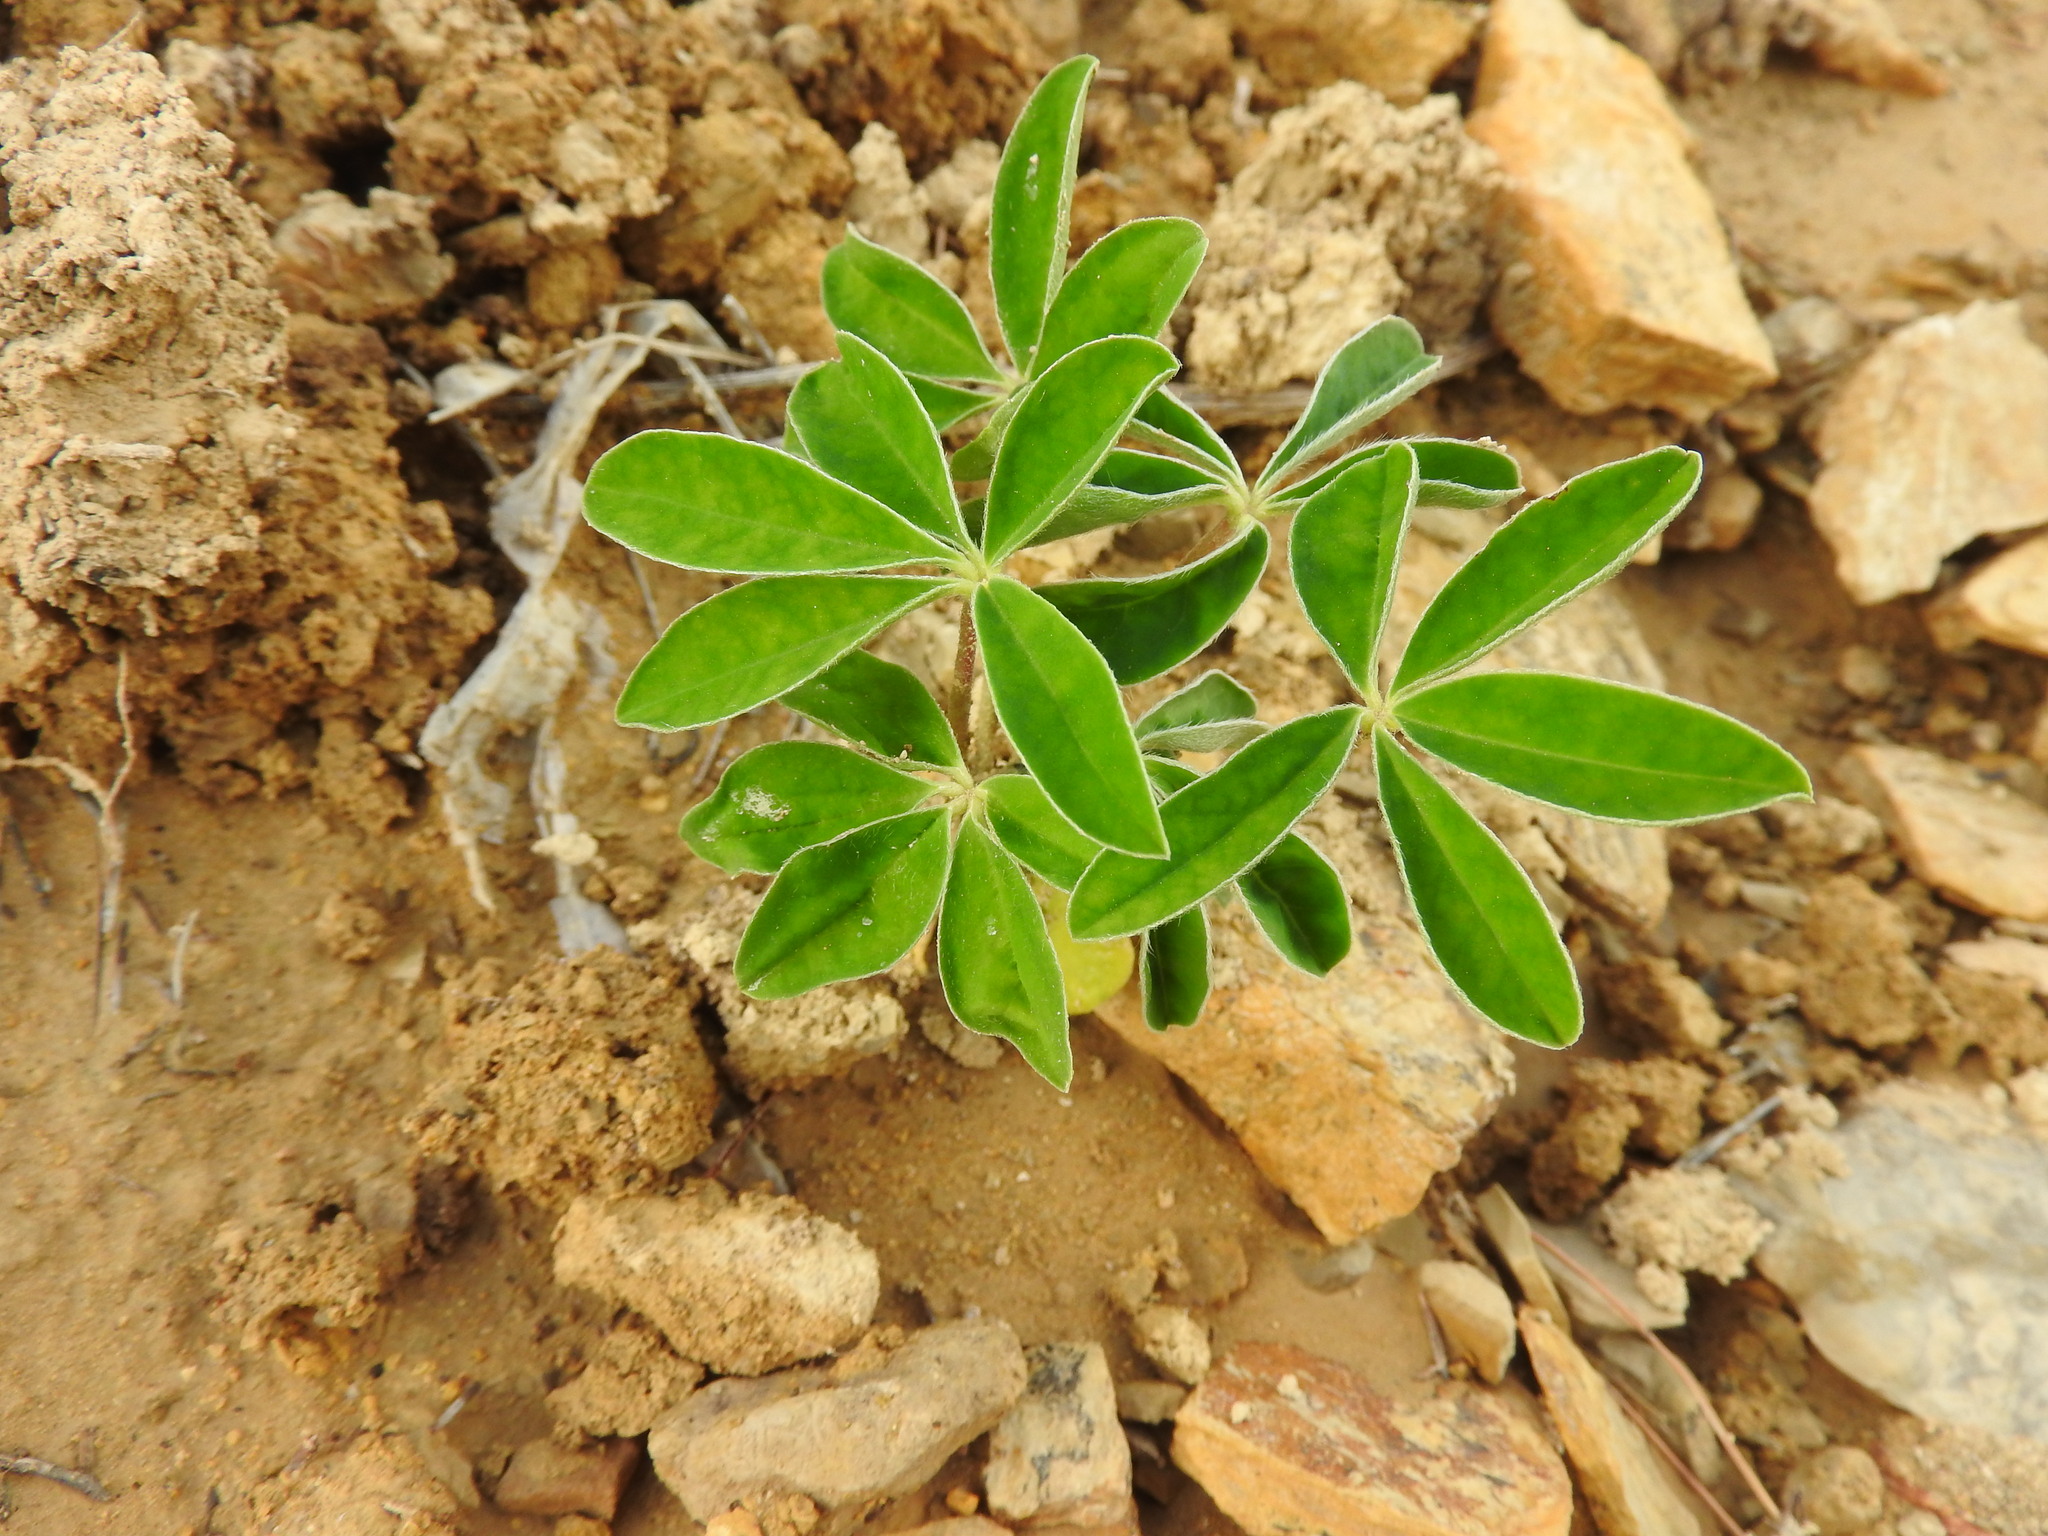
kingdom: Plantae
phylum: Tracheophyta
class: Magnoliopsida
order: Fabales
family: Fabaceae
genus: Lupinus
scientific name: Lupinus albus
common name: White lupin
